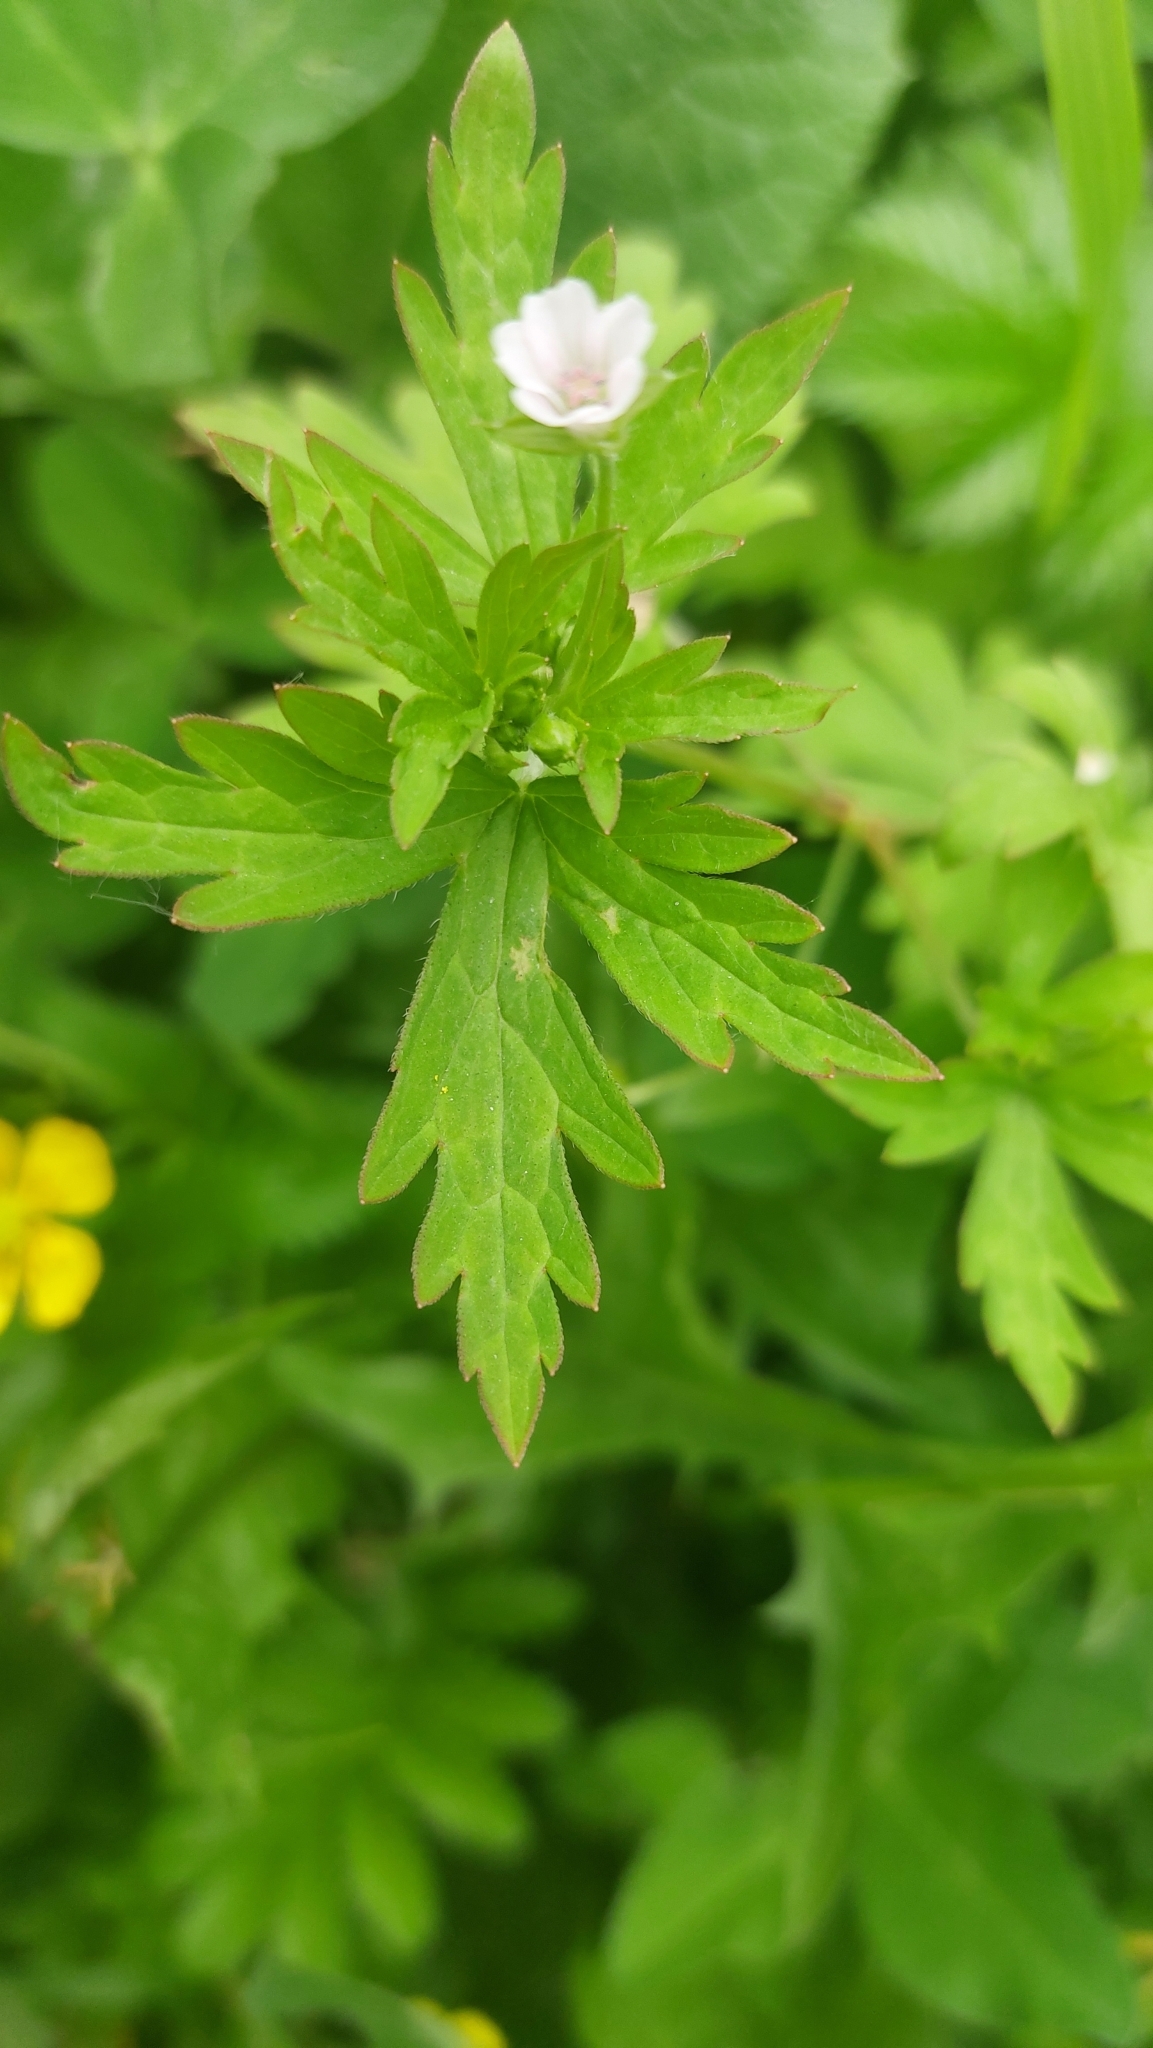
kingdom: Plantae
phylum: Tracheophyta
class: Magnoliopsida
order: Geraniales
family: Geraniaceae
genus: Geranium
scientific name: Geranium sibiricum
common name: Siberian crane's-bill
